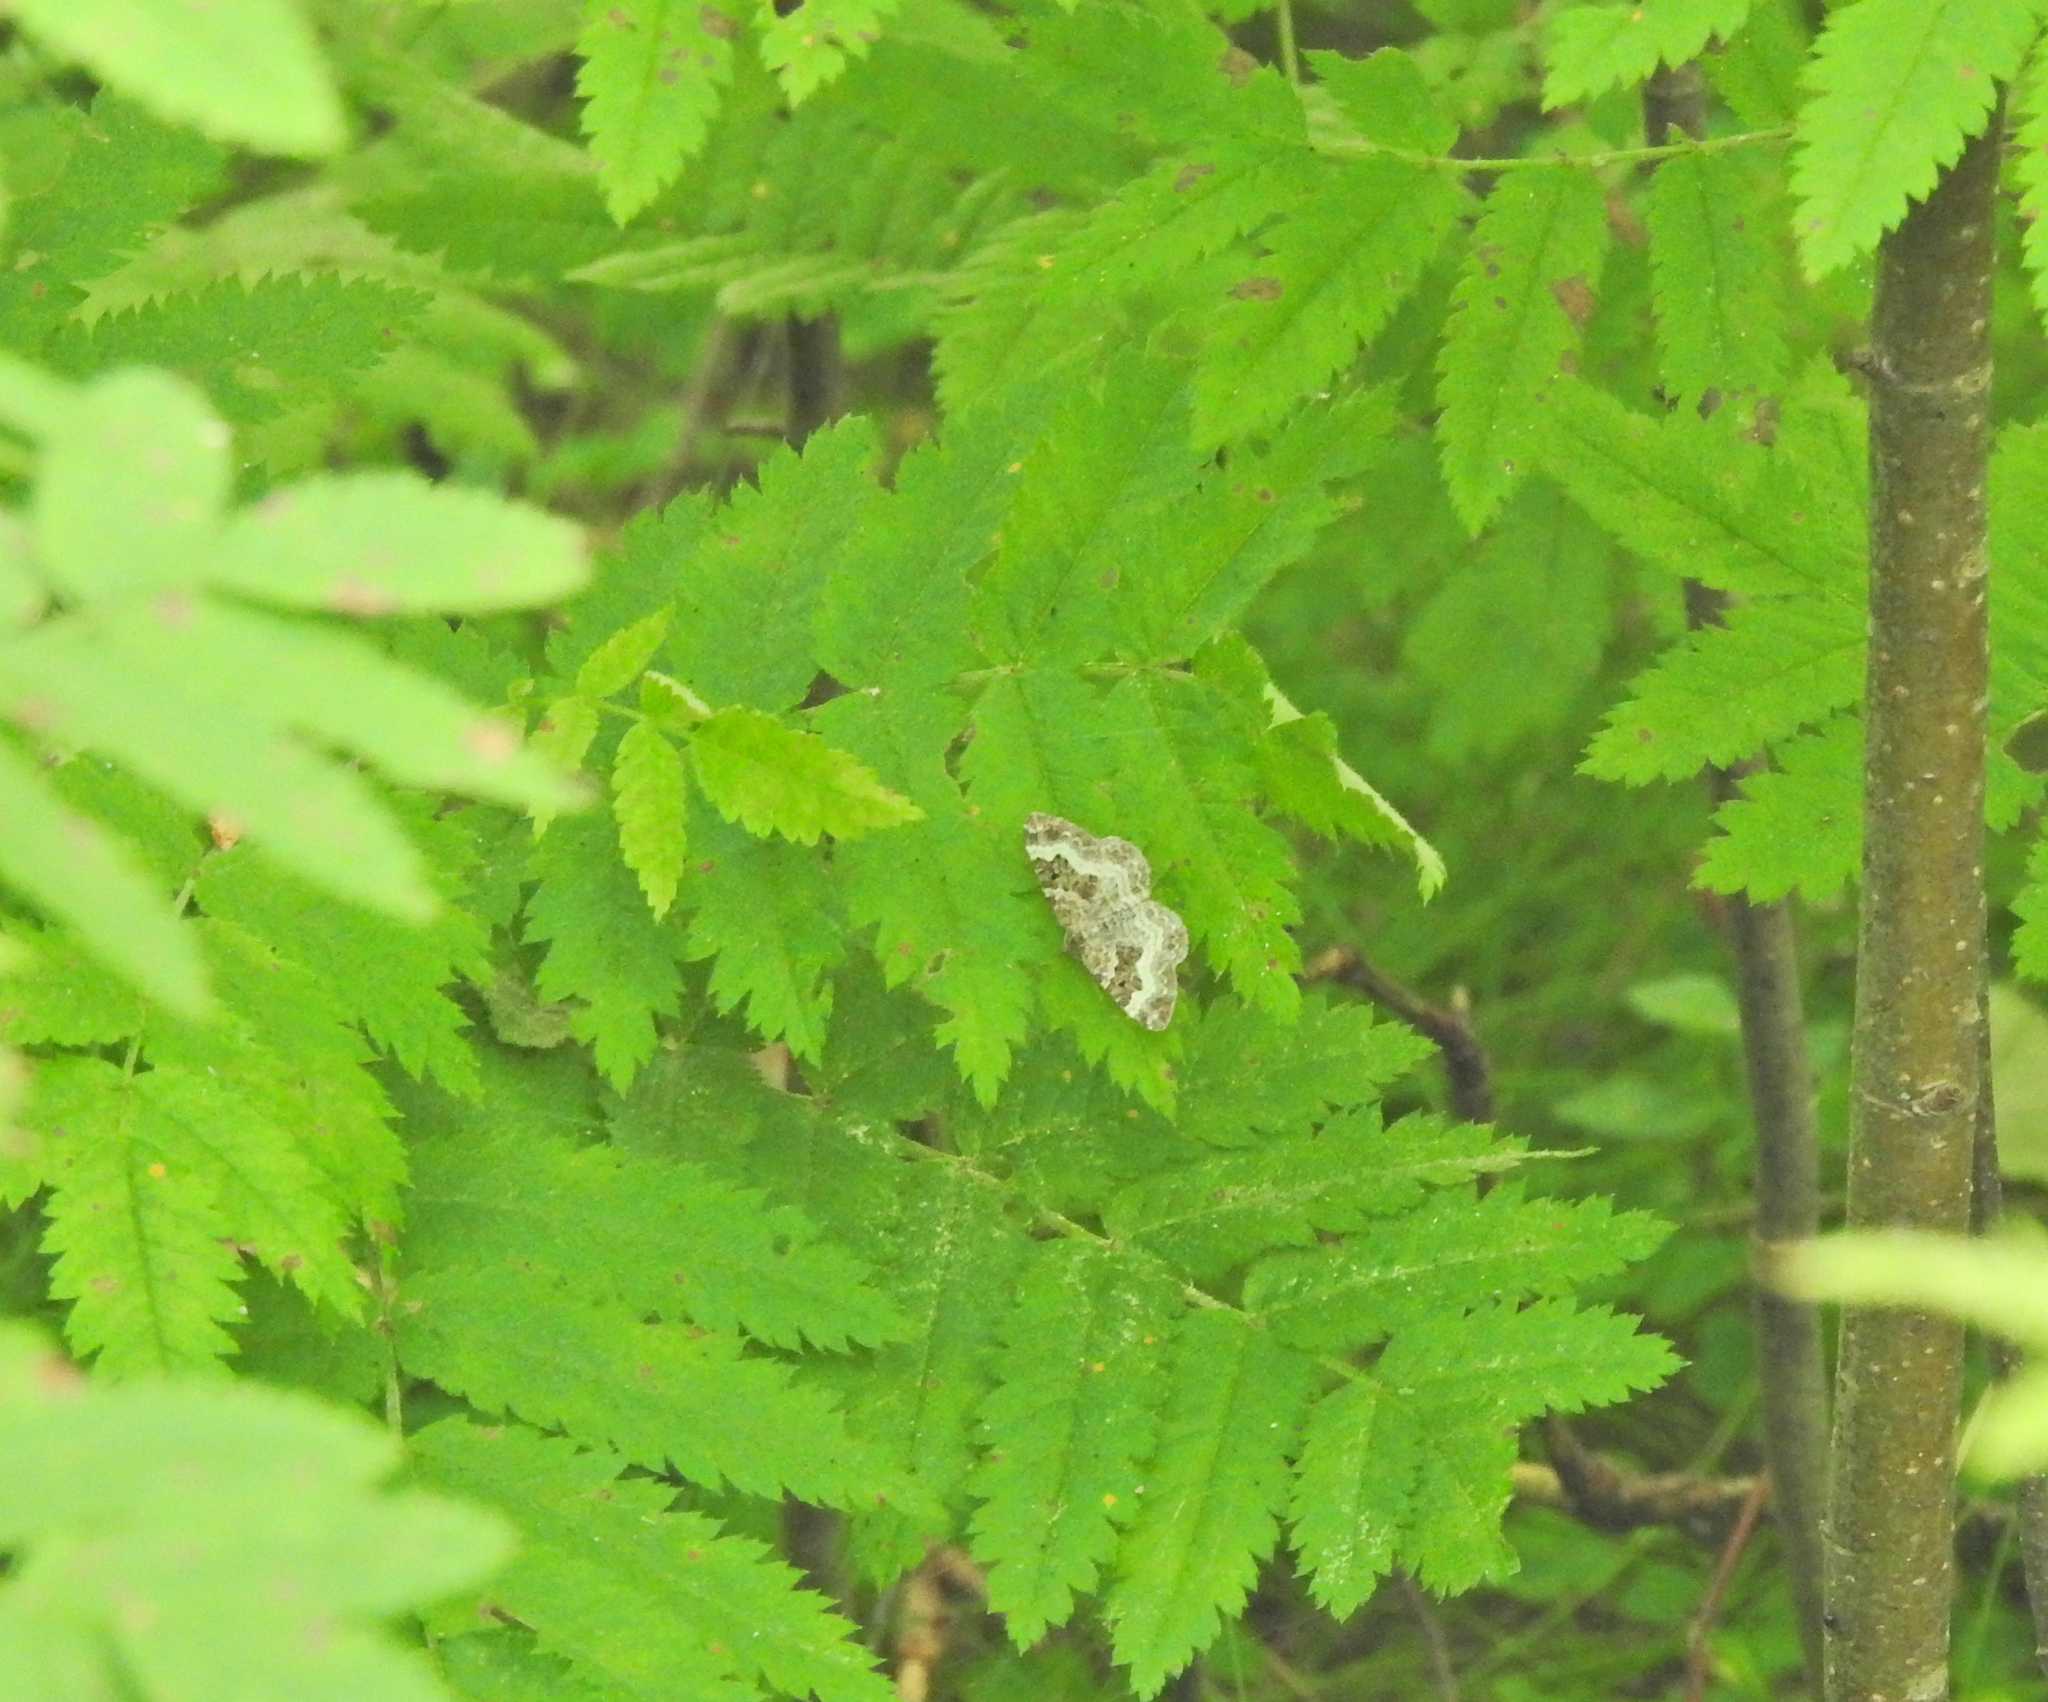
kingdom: Animalia
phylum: Arthropoda
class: Insecta
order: Lepidoptera
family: Geometridae
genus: Epirrhoe
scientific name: Epirrhoe alternata
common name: Common carpet
